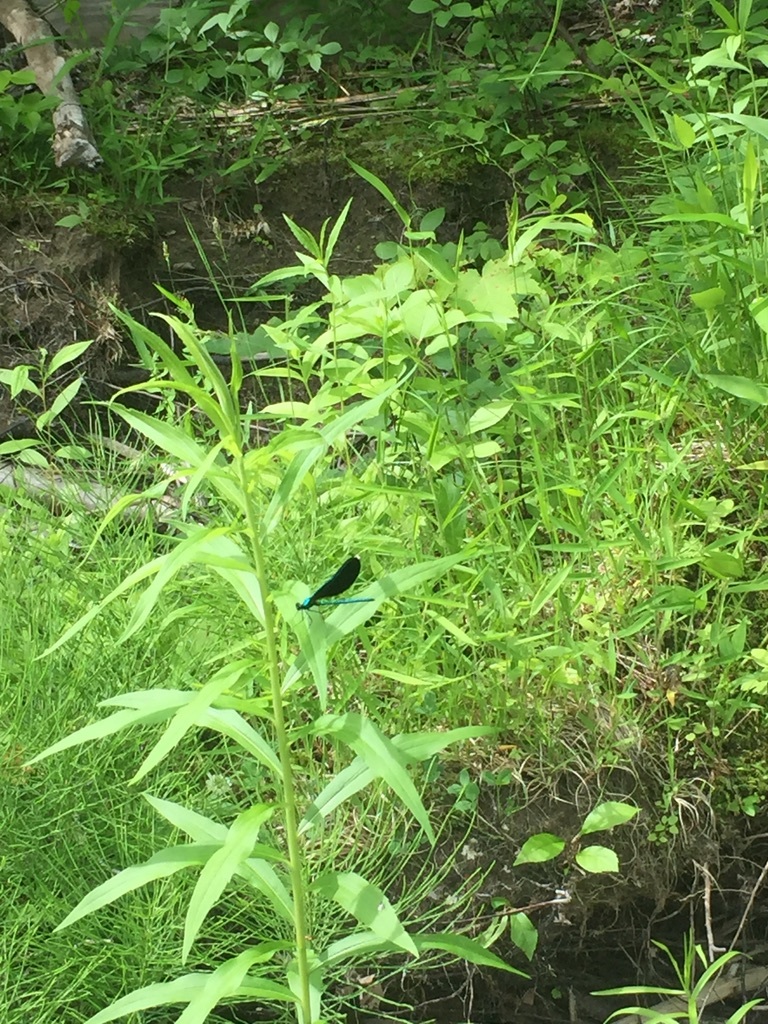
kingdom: Animalia
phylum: Arthropoda
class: Insecta
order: Odonata
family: Calopterygidae
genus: Calopteryx
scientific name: Calopteryx maculata
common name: Ebony jewelwing
